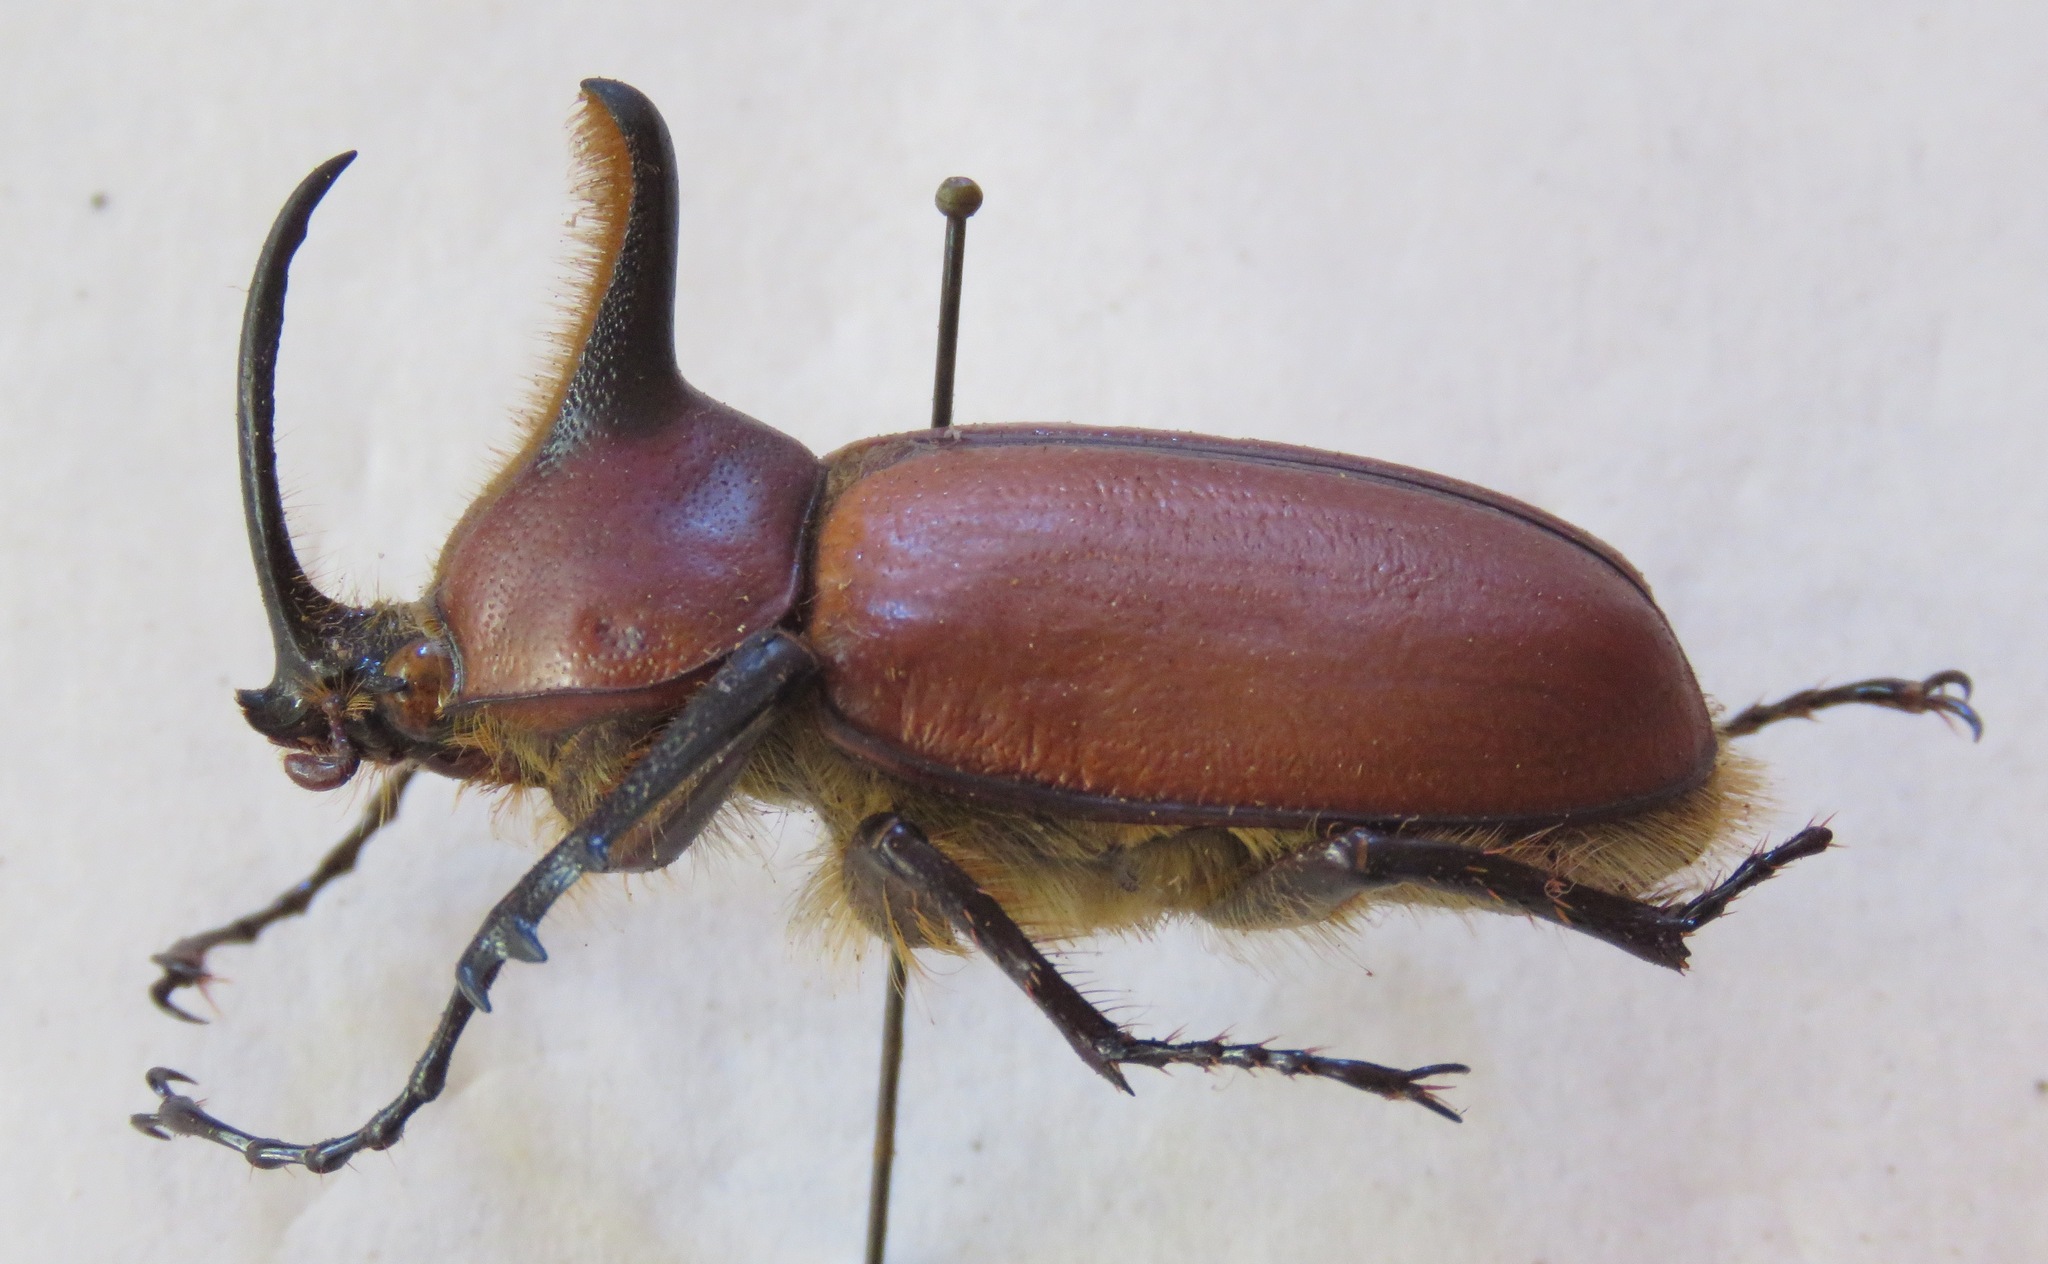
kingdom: Animalia
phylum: Arthropoda
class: Insecta
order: Coleoptera
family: Scarabaeidae
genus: Golofa
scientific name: Golofa costaricensis
